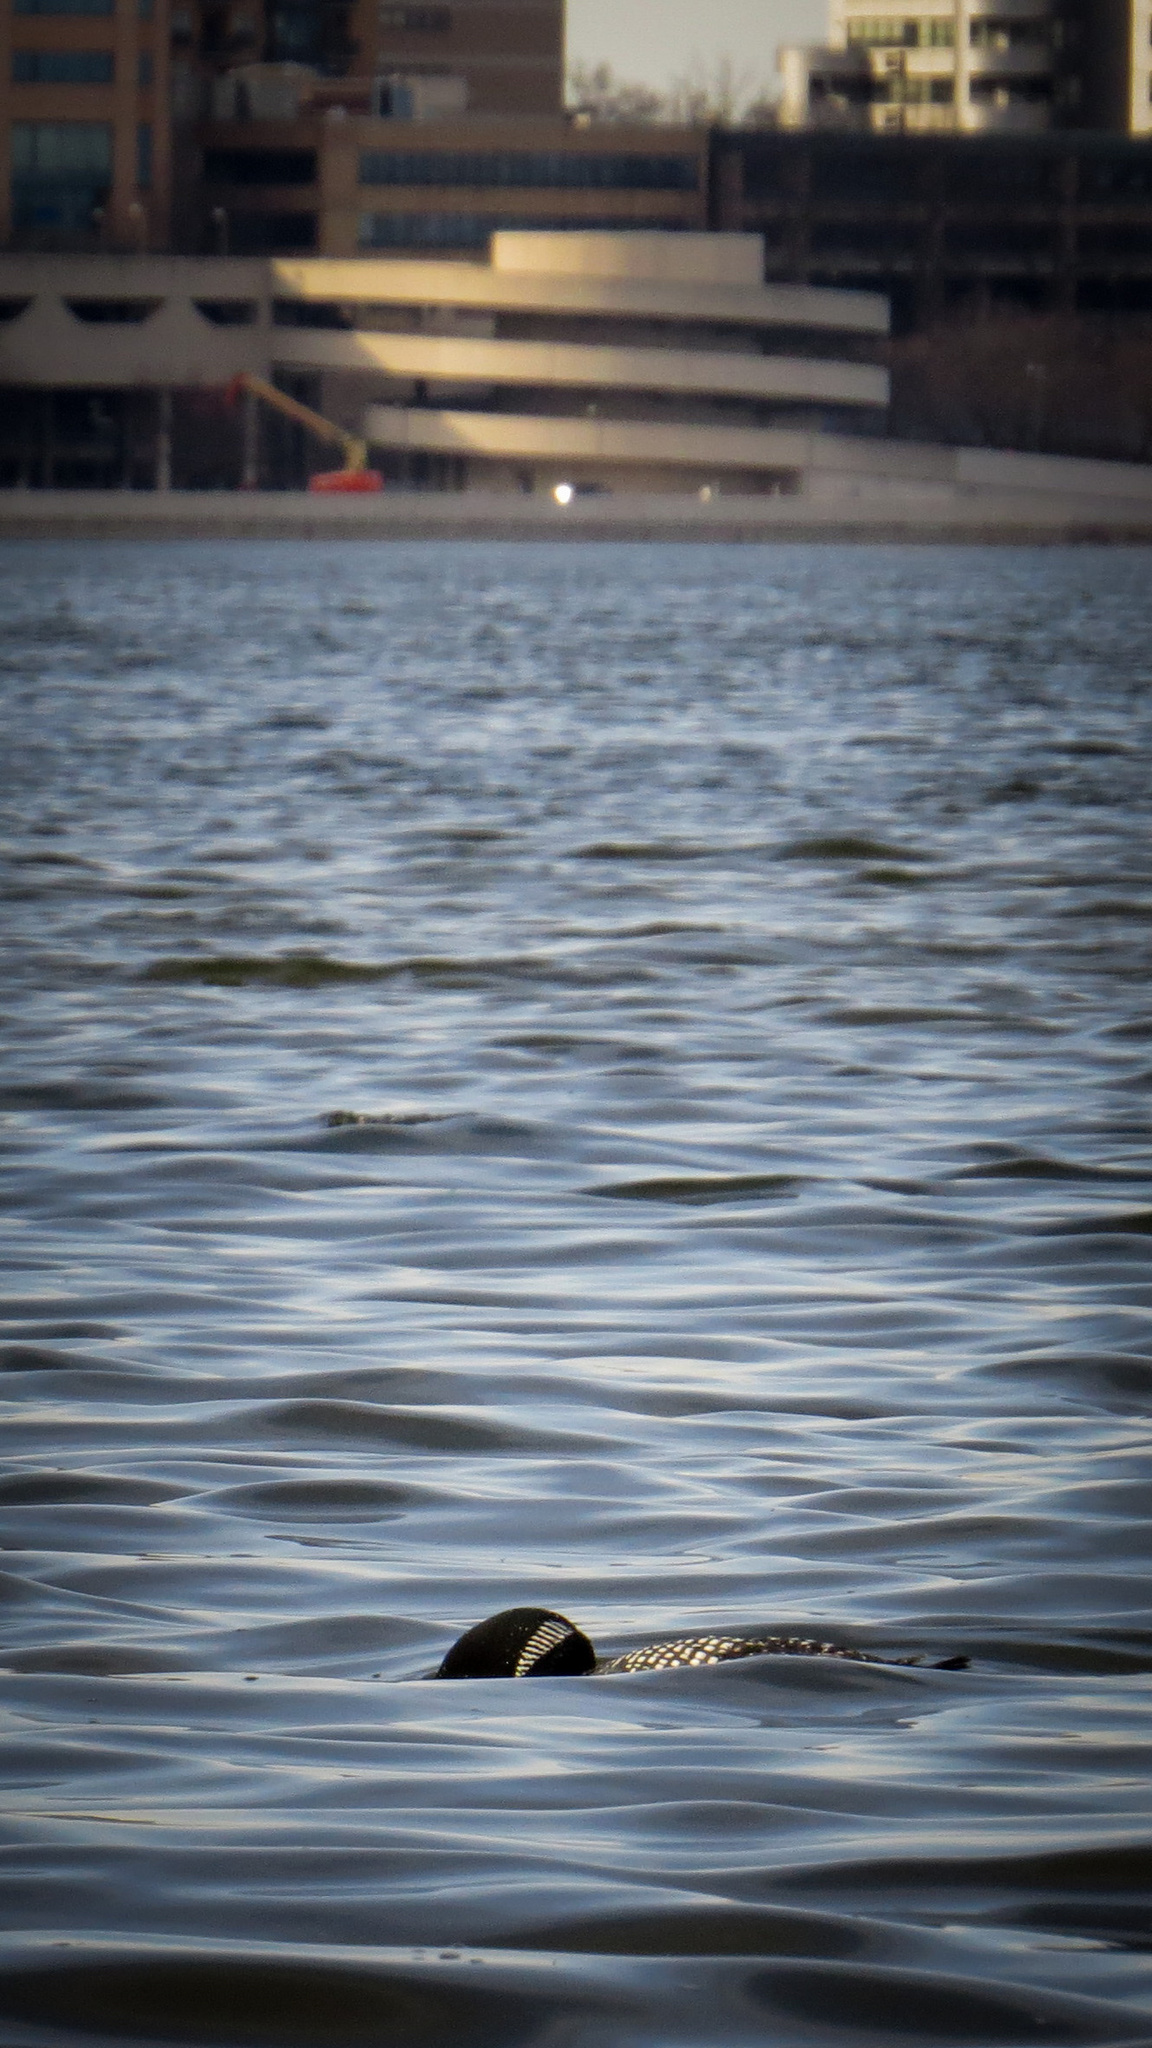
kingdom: Animalia
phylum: Chordata
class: Aves
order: Gaviiformes
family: Gaviidae
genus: Gavia
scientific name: Gavia immer
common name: Common loon
